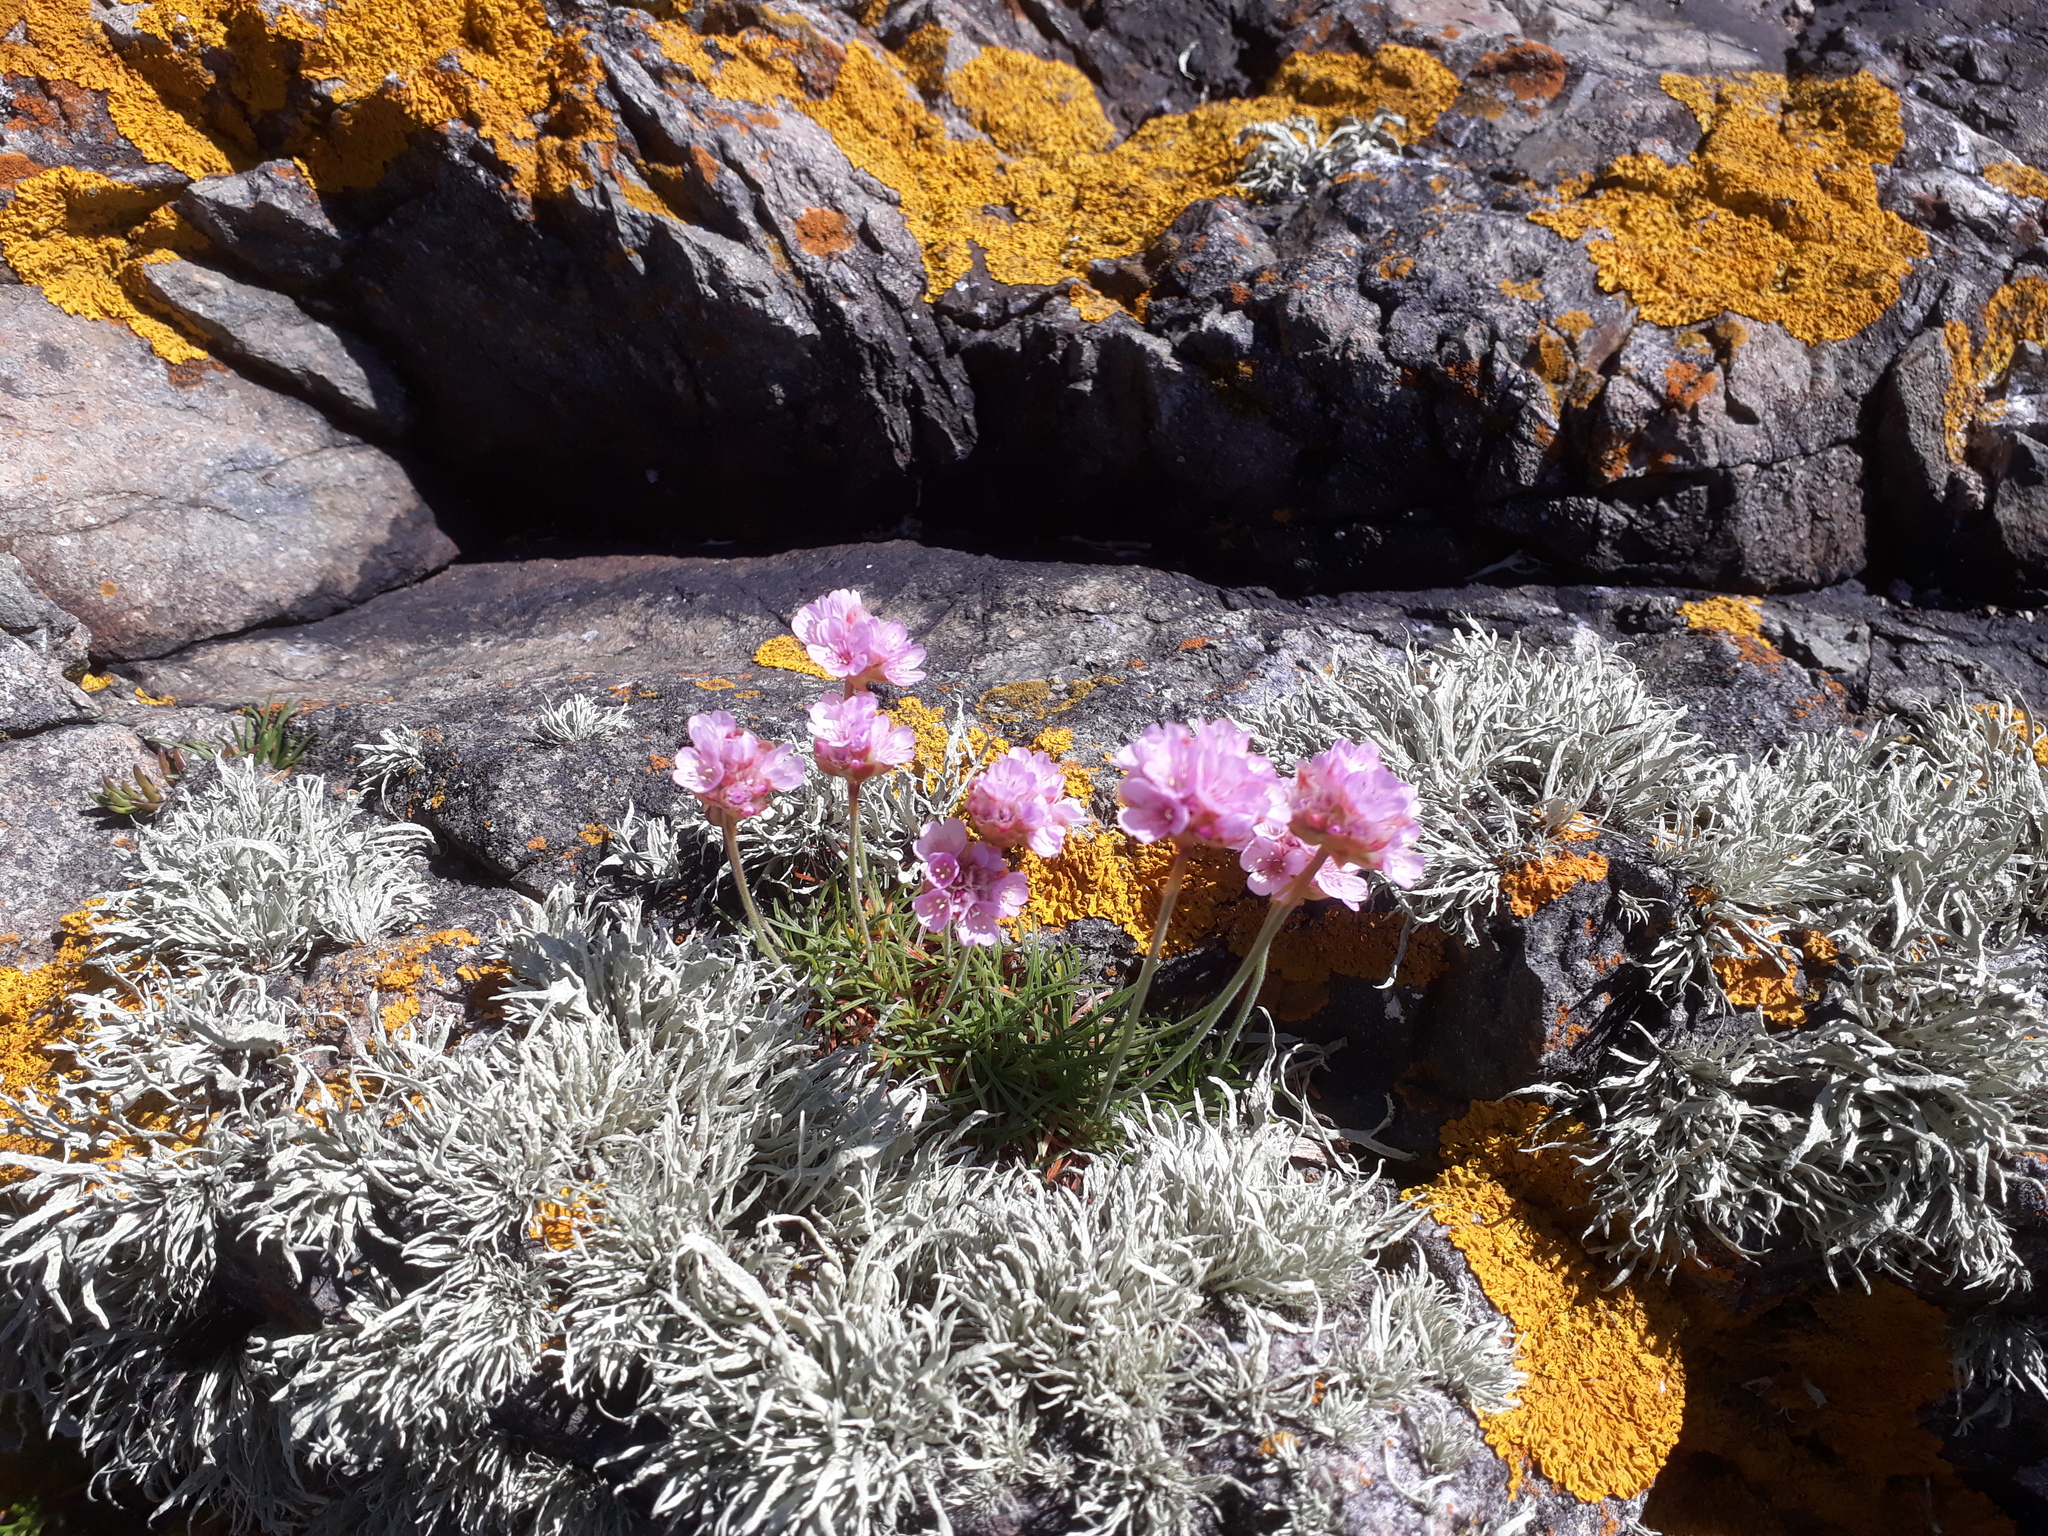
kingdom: Plantae
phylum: Tracheophyta
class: Magnoliopsida
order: Caryophyllales
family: Plumbaginaceae
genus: Armeria
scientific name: Armeria maritima
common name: Thrift
